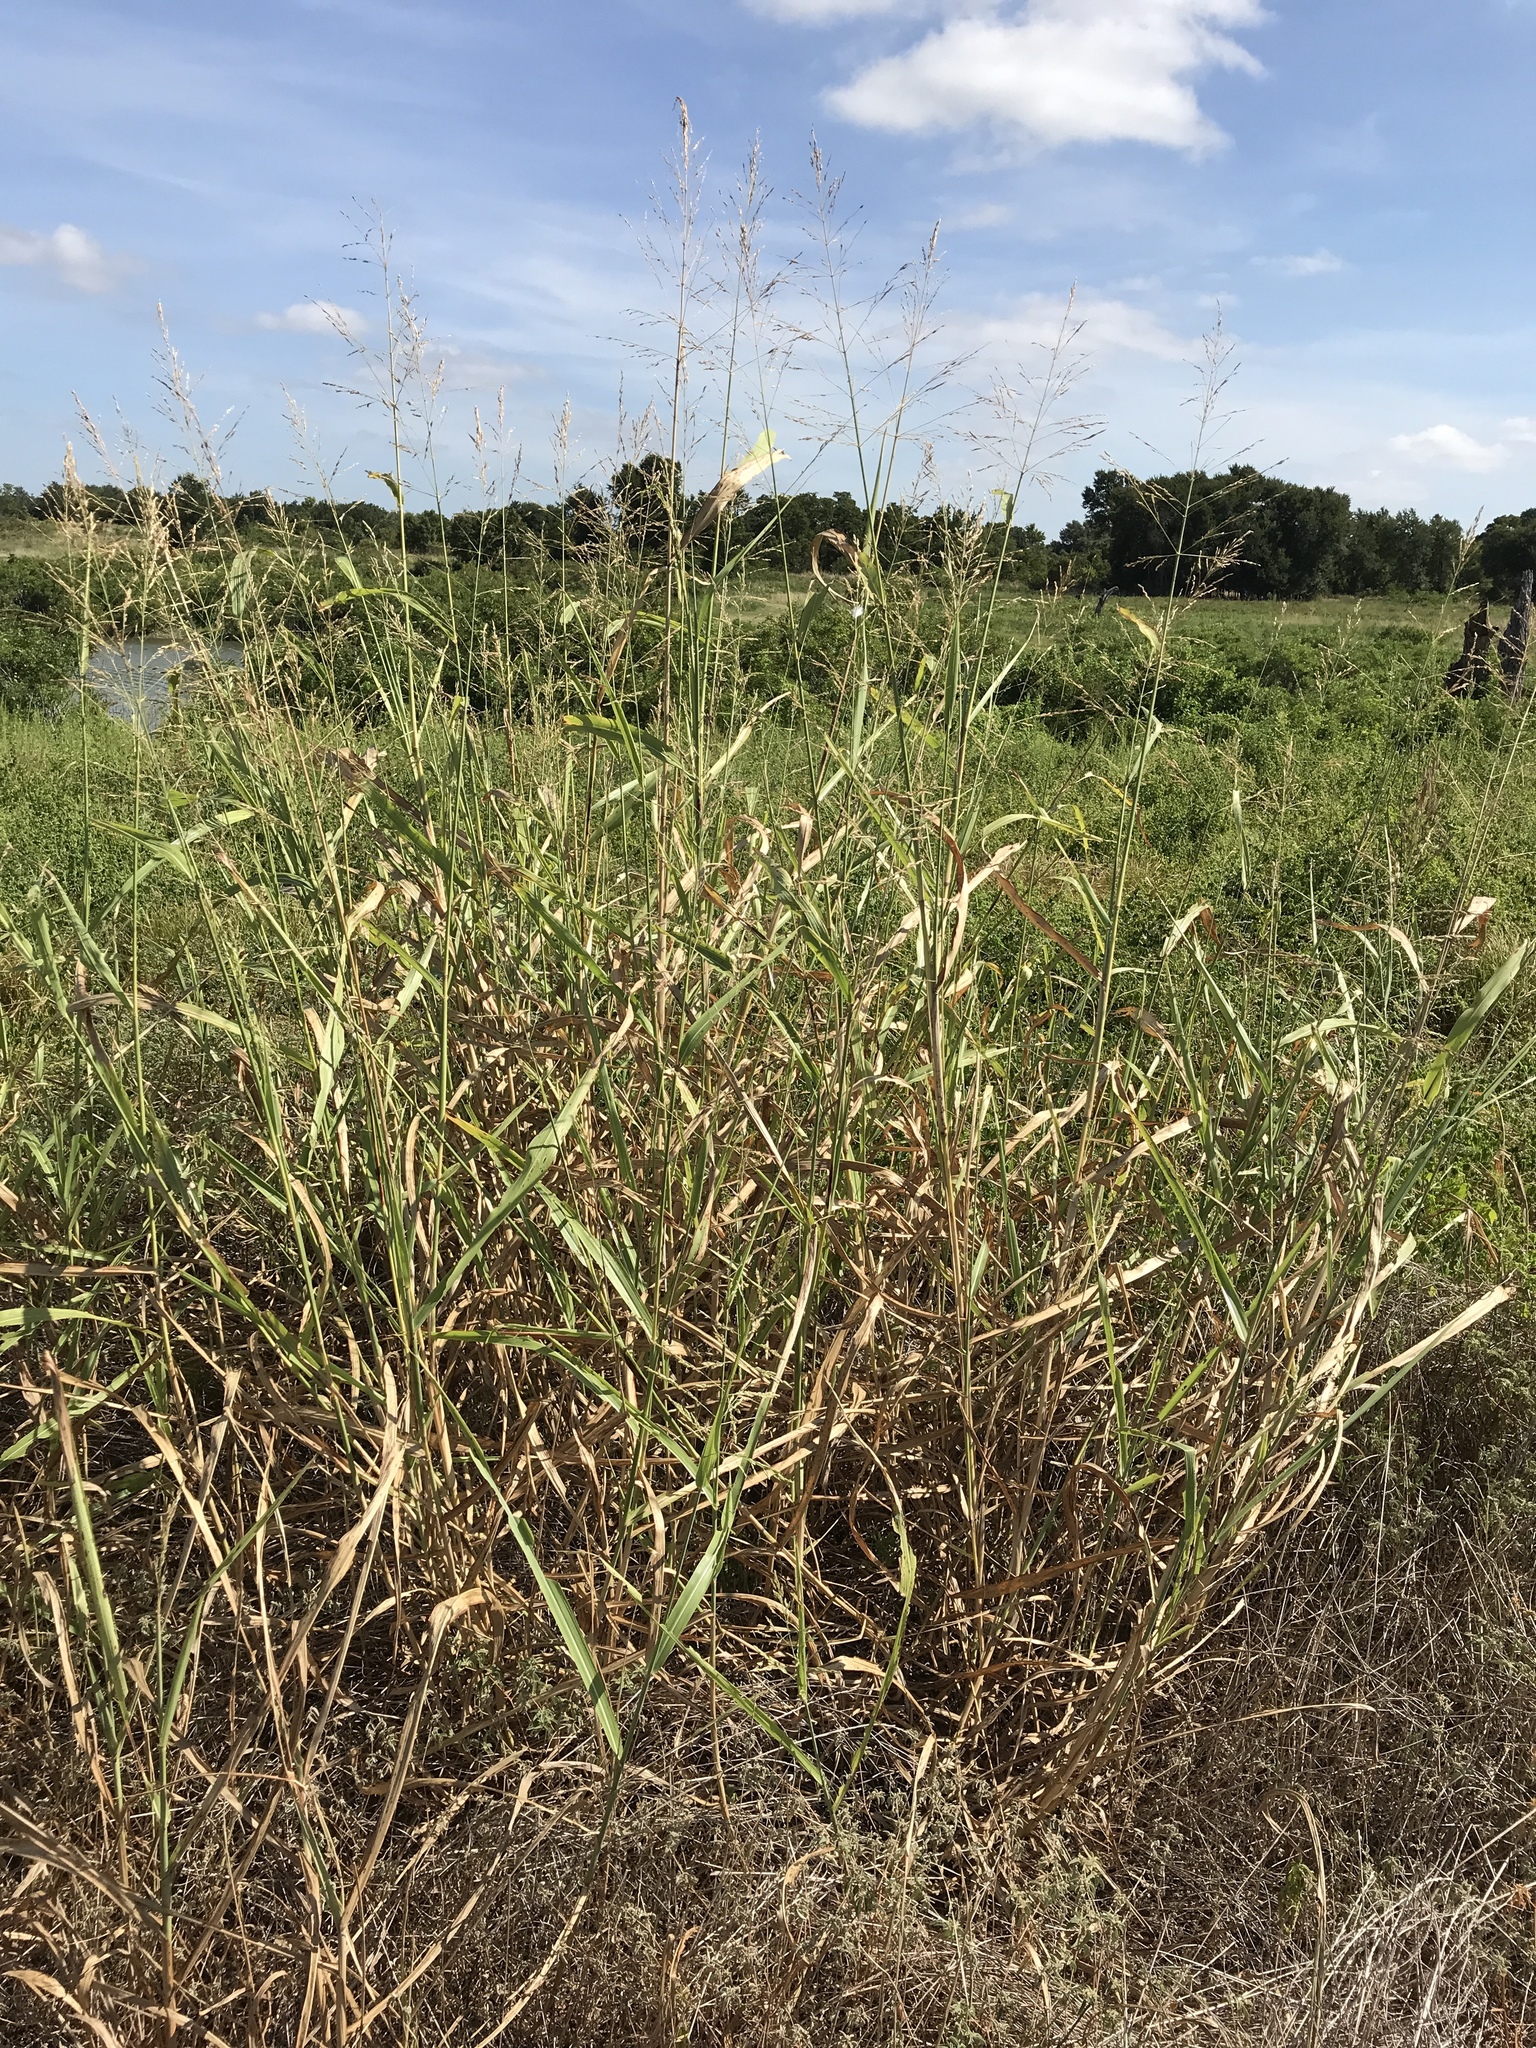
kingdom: Plantae
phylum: Tracheophyta
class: Liliopsida
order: Poales
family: Poaceae
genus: Sorghum
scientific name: Sorghum halepense
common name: Johnson-grass
